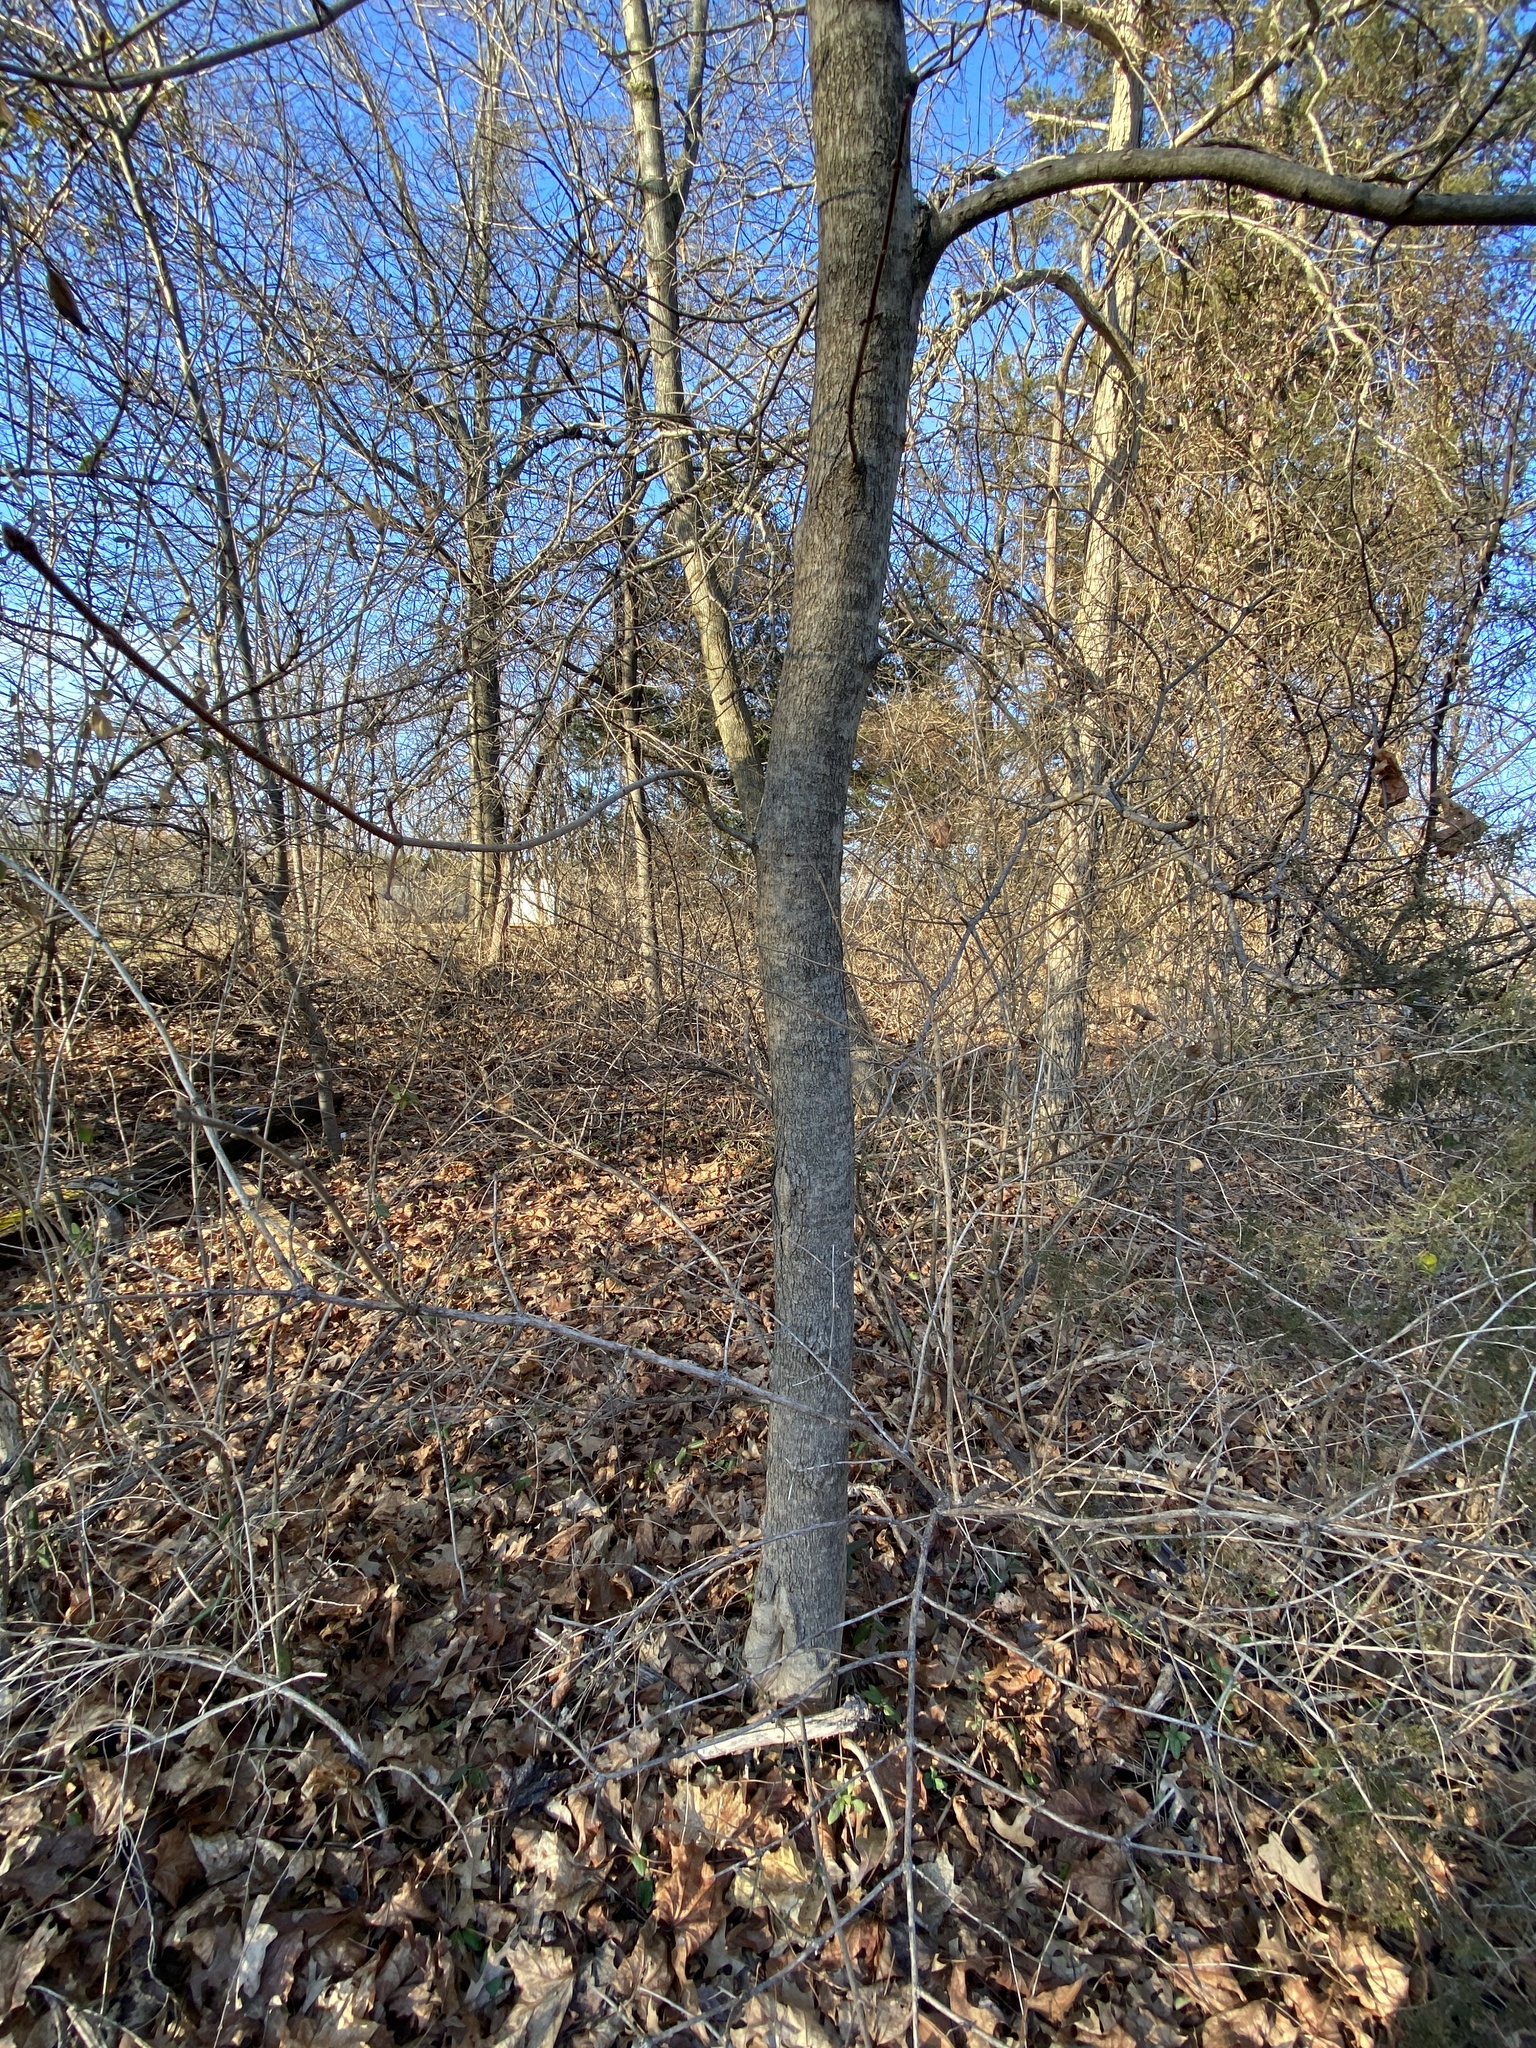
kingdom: Plantae
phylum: Tracheophyta
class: Magnoliopsida
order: Sapindales
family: Sapindaceae
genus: Acer
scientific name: Acer platanoides
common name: Norway maple
